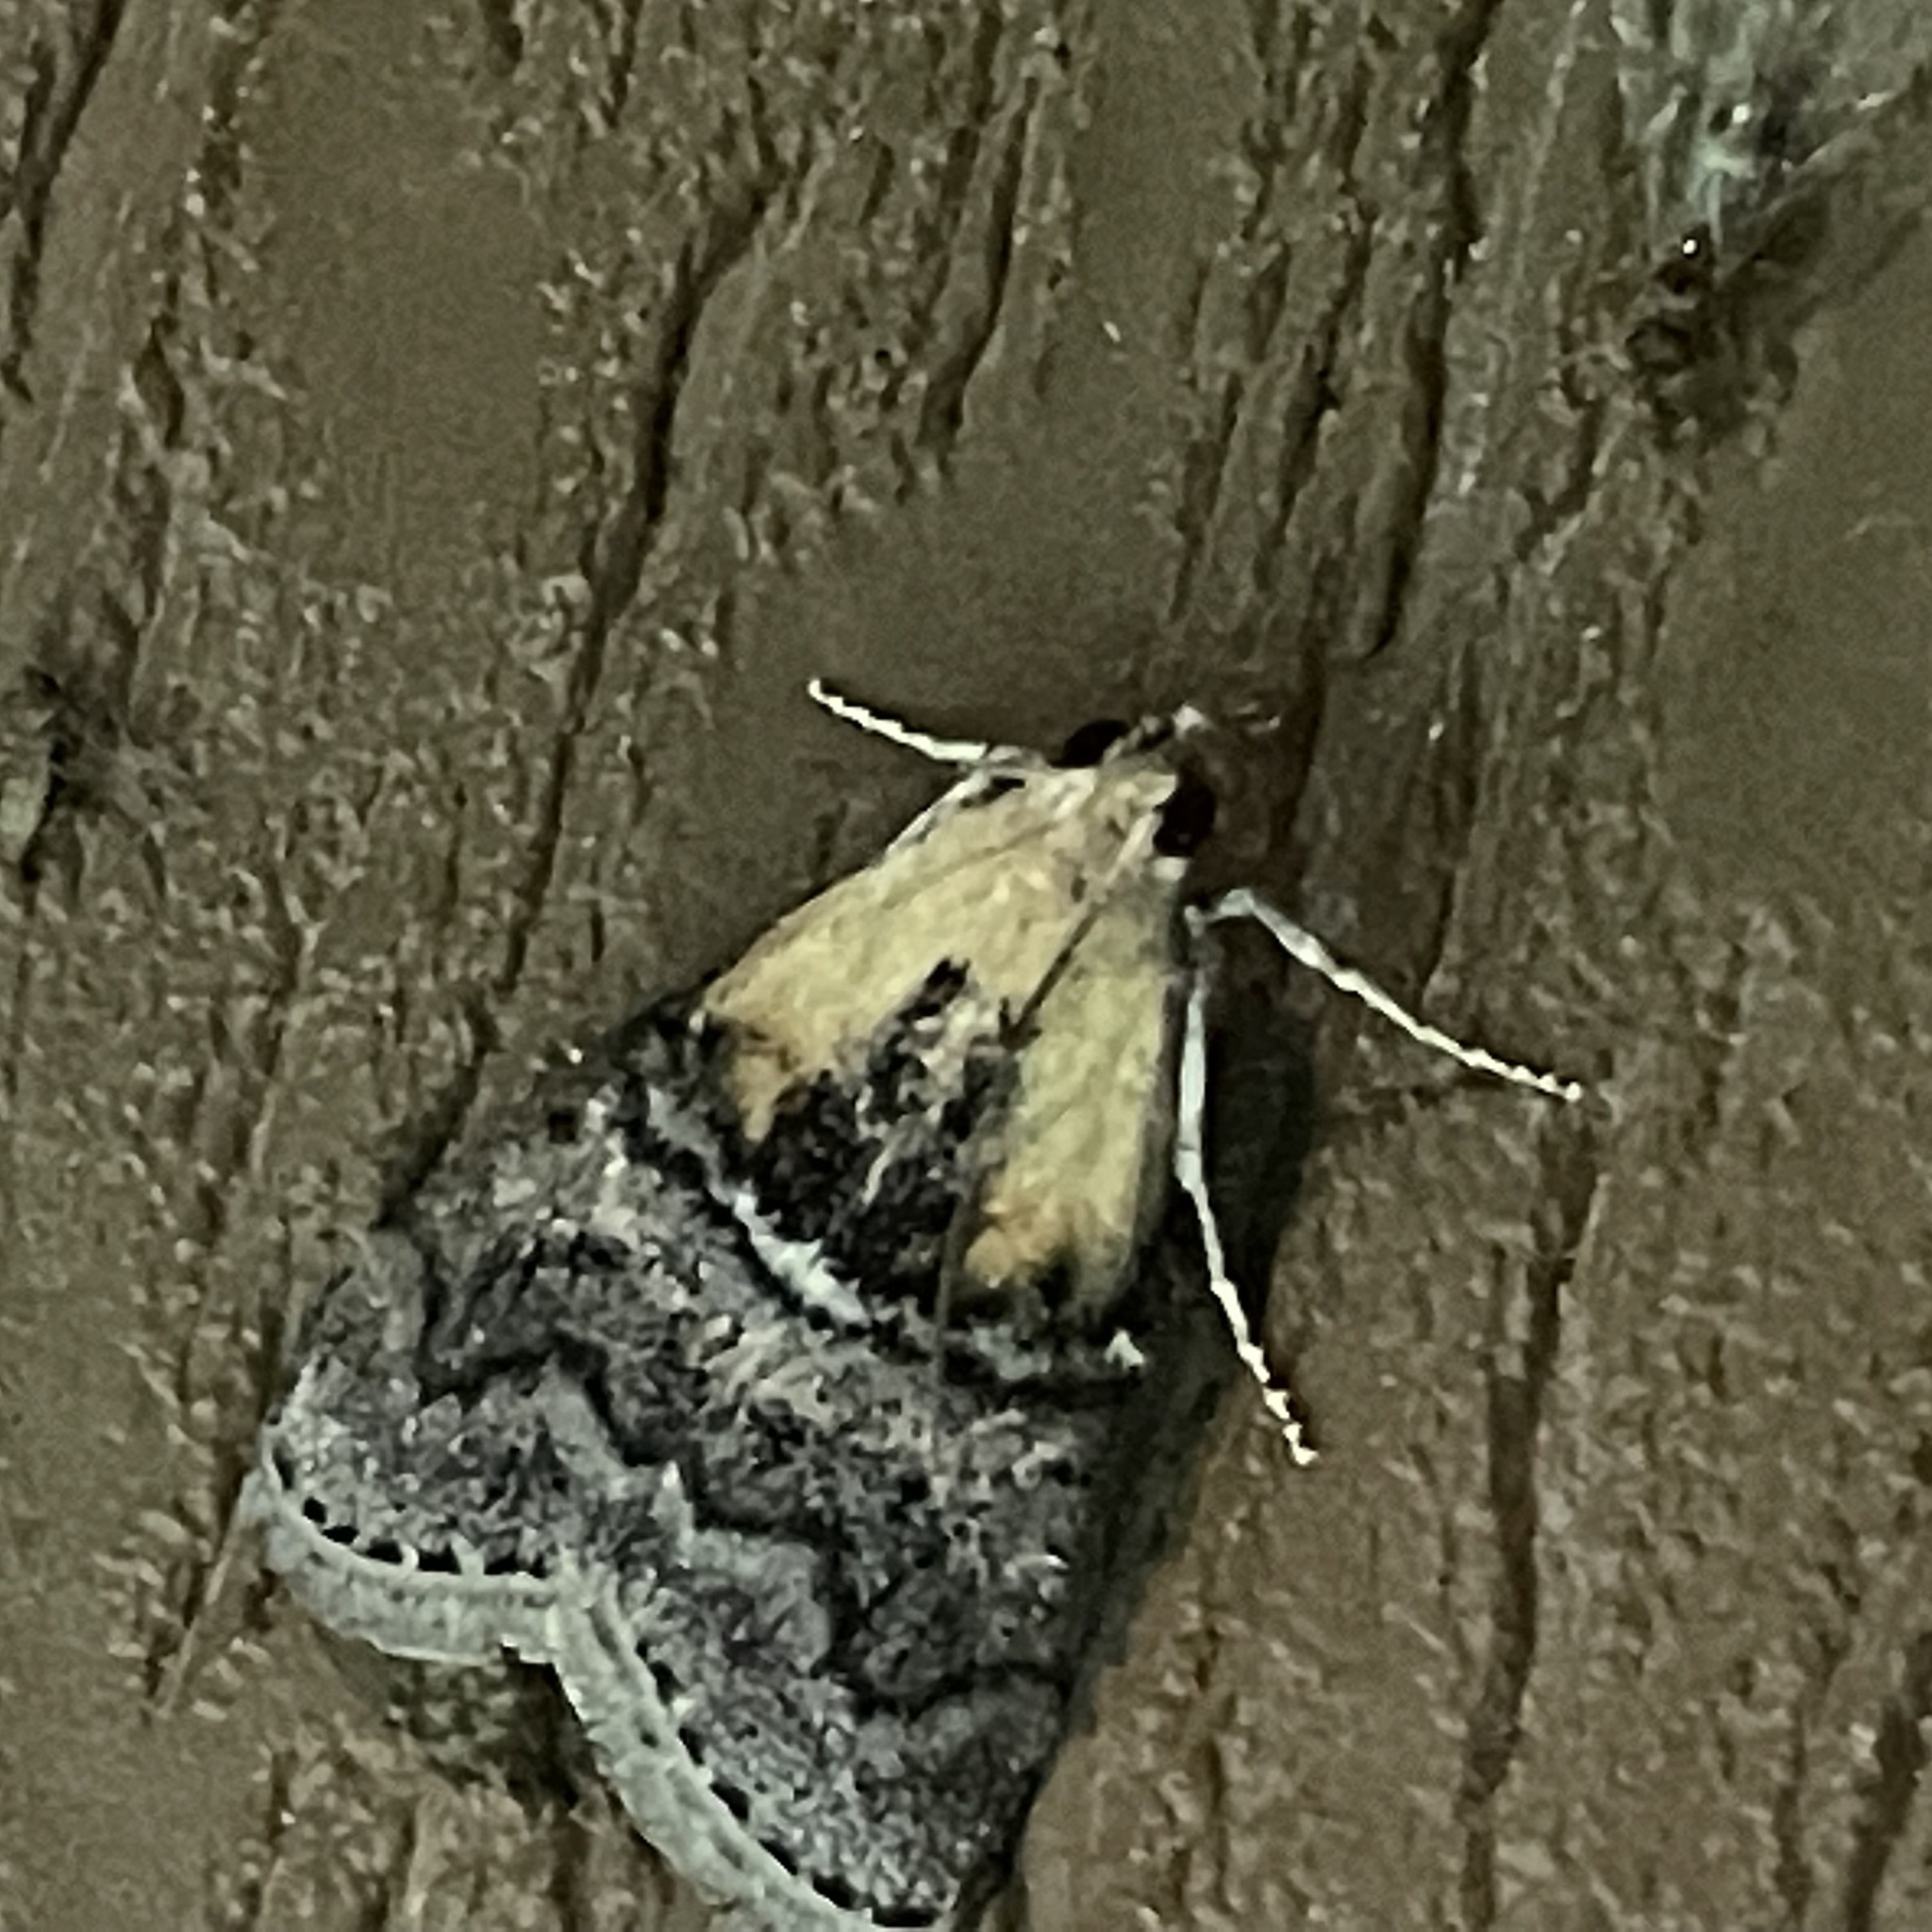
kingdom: Animalia
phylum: Arthropoda
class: Insecta
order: Lepidoptera
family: Pyralidae
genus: Pococera
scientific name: Pococera expandens
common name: Striped oak webworm moth
